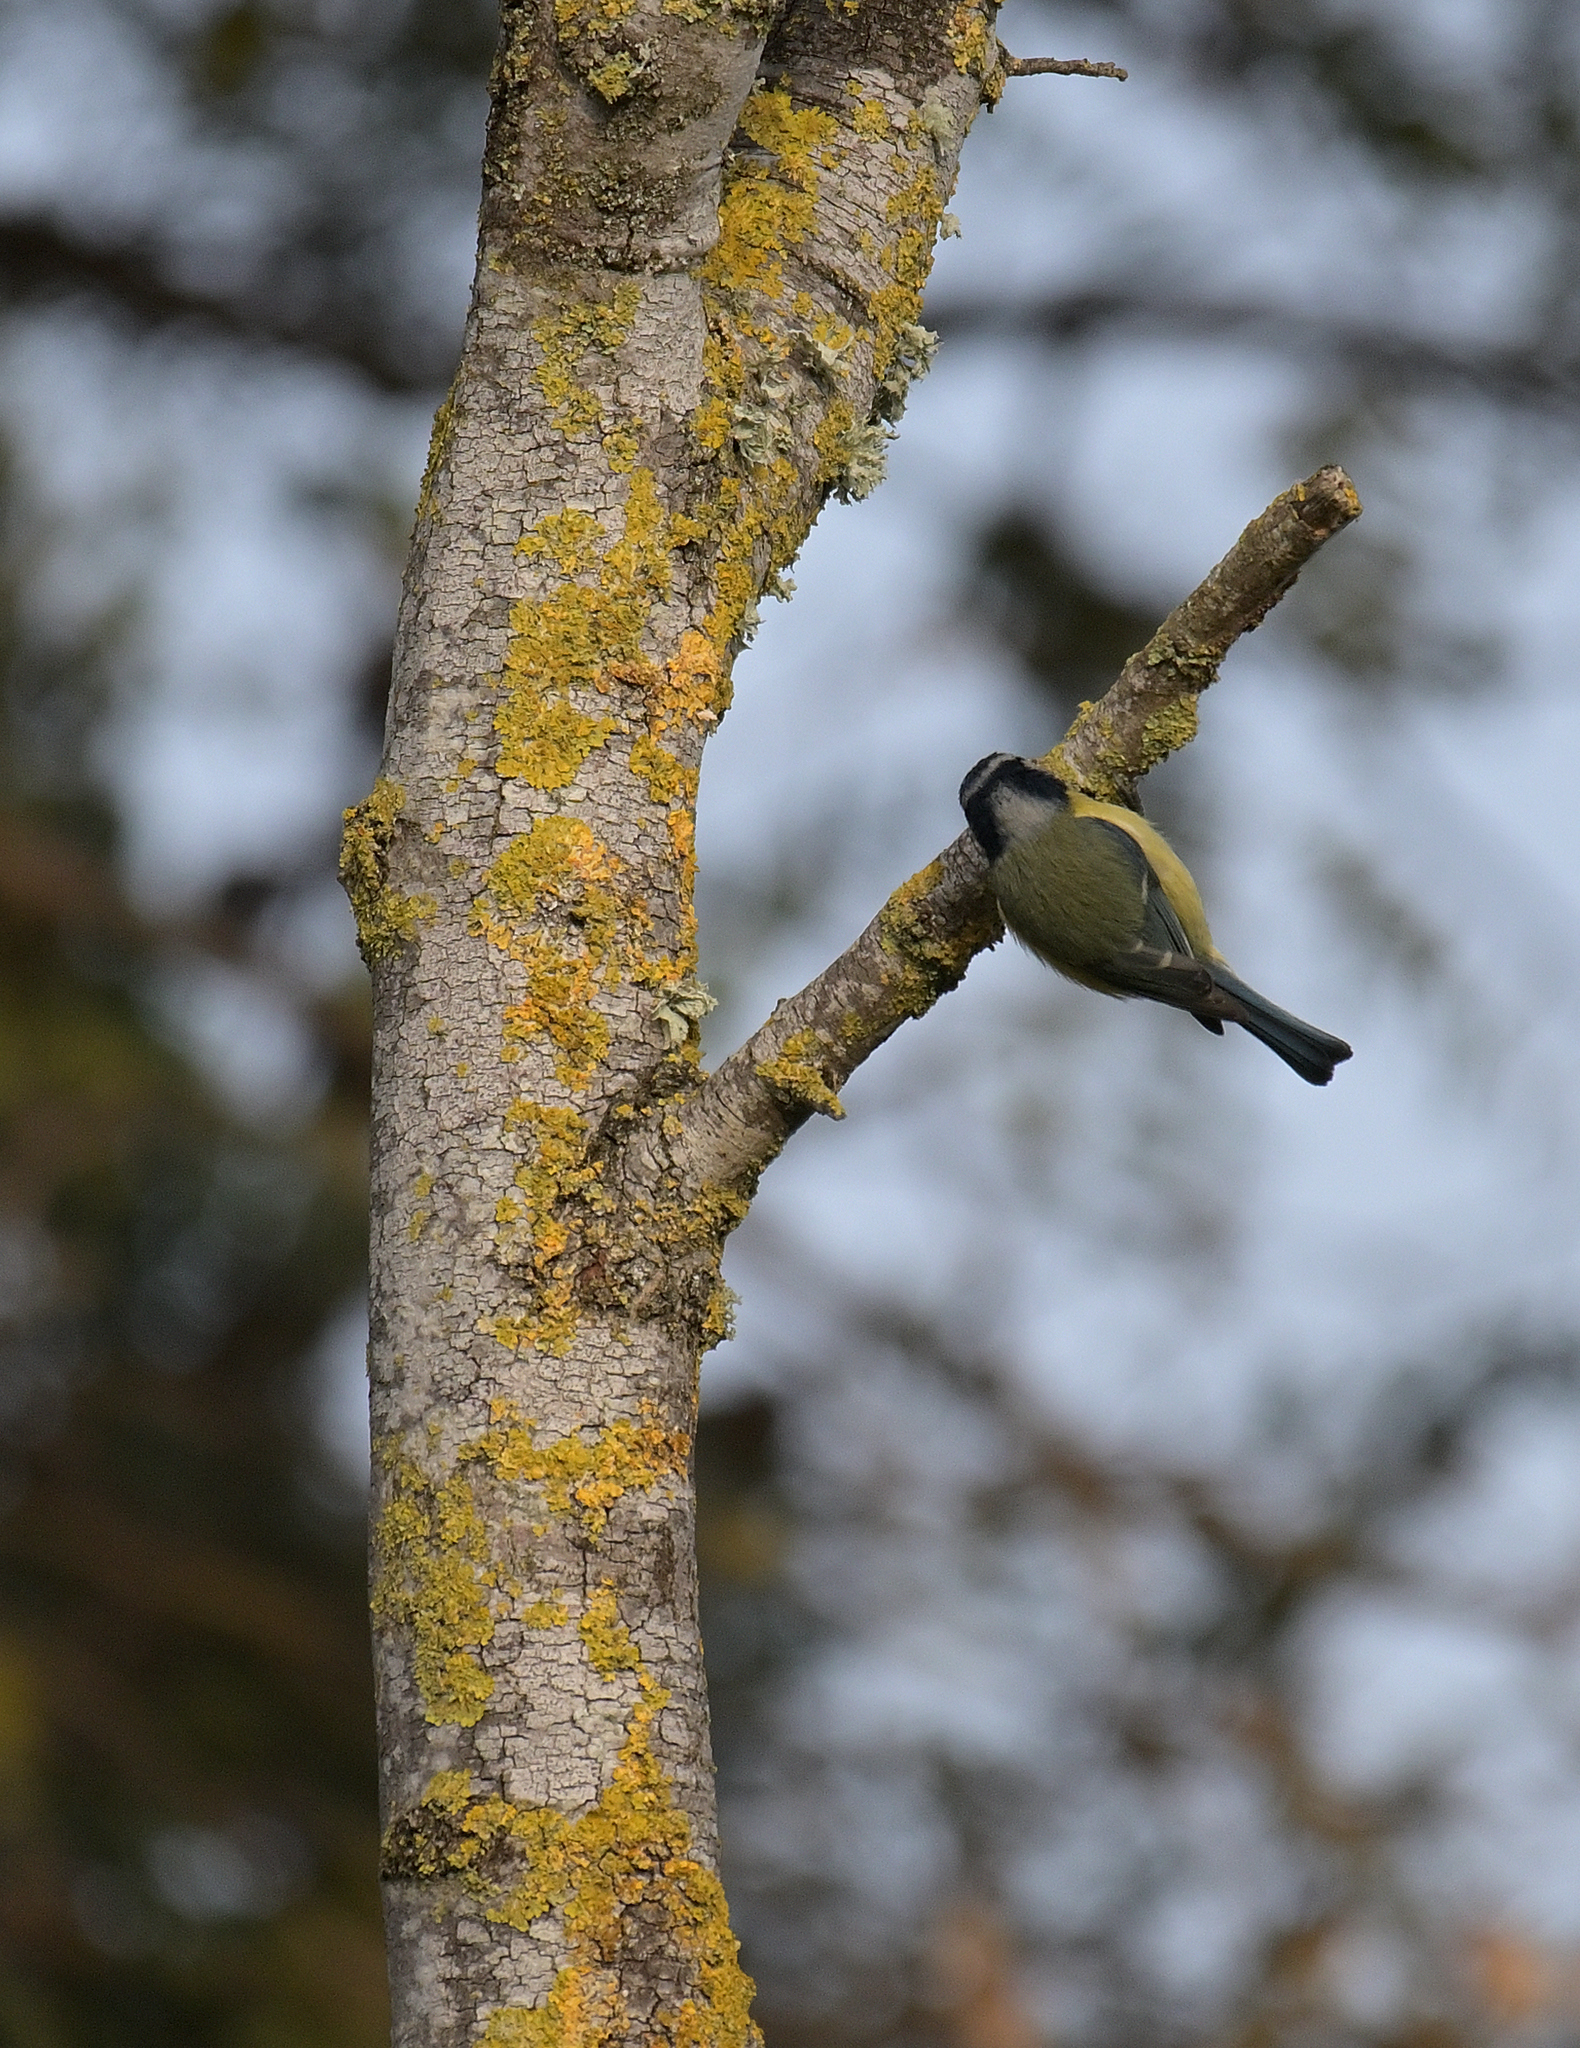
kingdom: Animalia
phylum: Chordata
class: Aves
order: Passeriformes
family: Paridae
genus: Cyanistes
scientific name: Cyanistes caeruleus
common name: Eurasian blue tit
